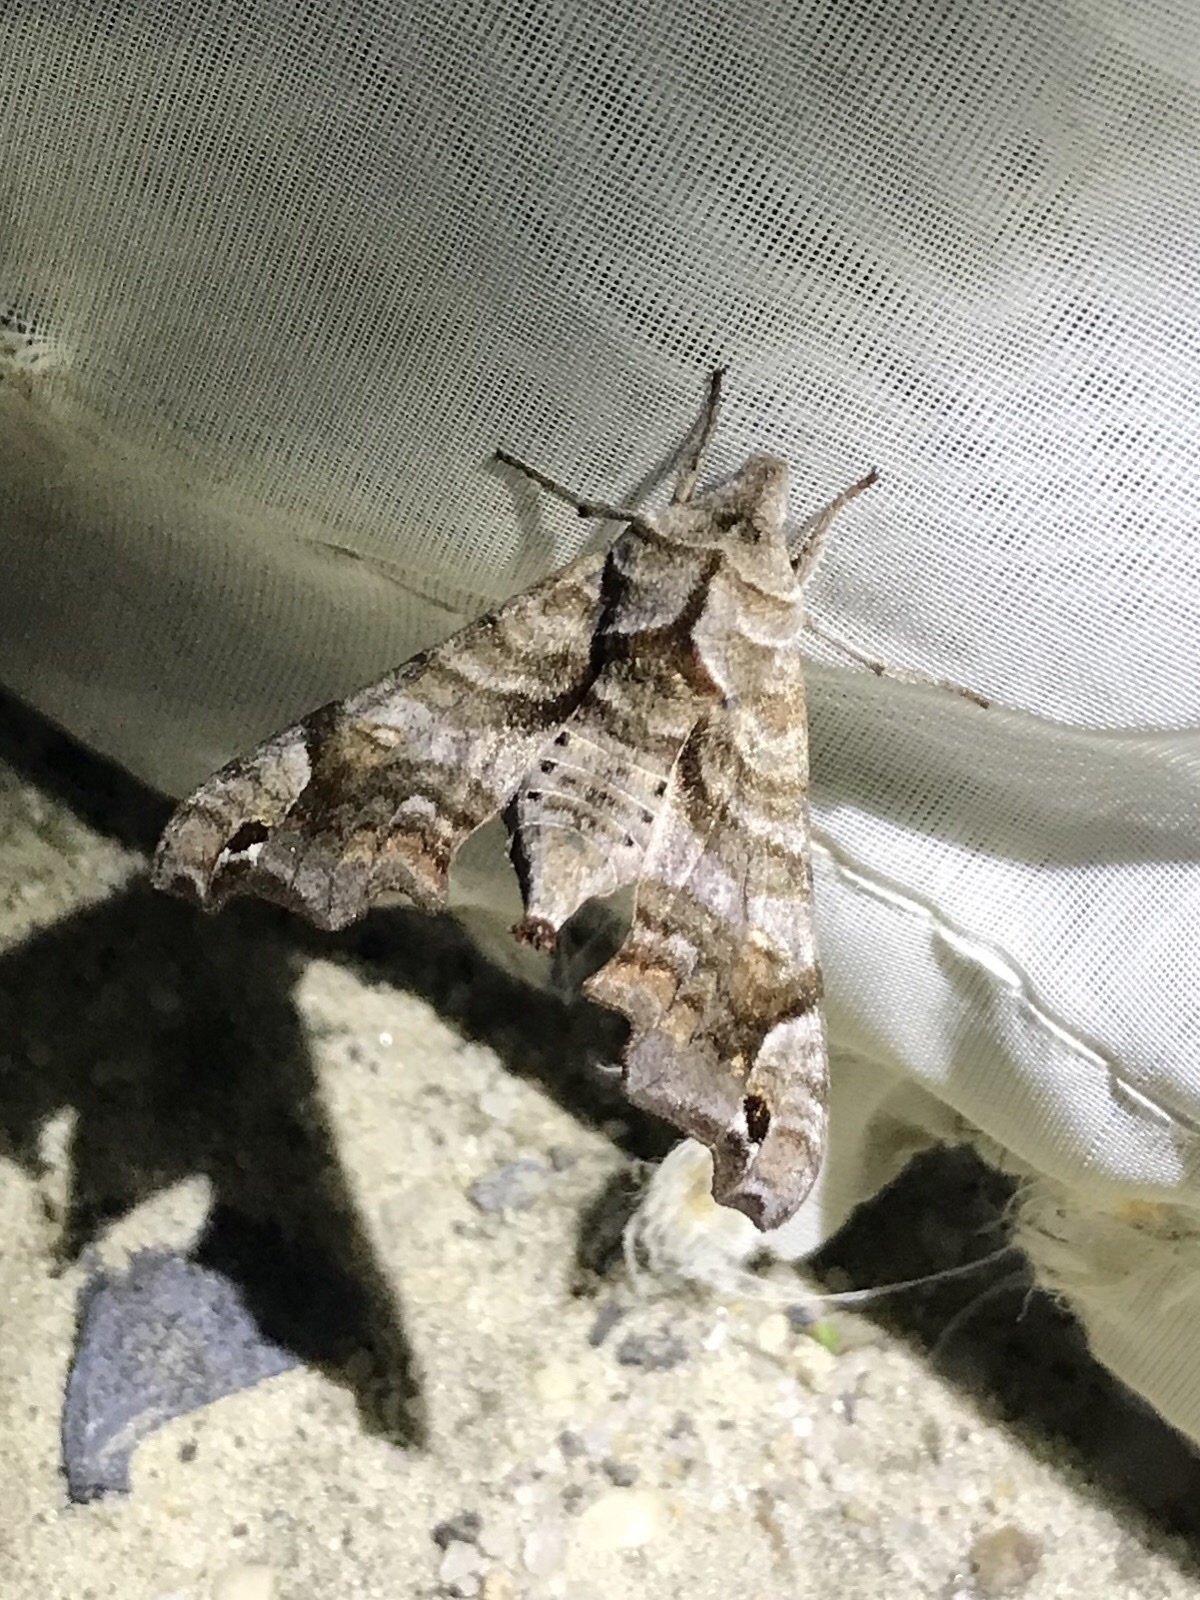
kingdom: Animalia
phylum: Arthropoda
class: Insecta
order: Lepidoptera
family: Sphingidae
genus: Deidamia
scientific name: Deidamia inscriptum
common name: Lettered sphinx
